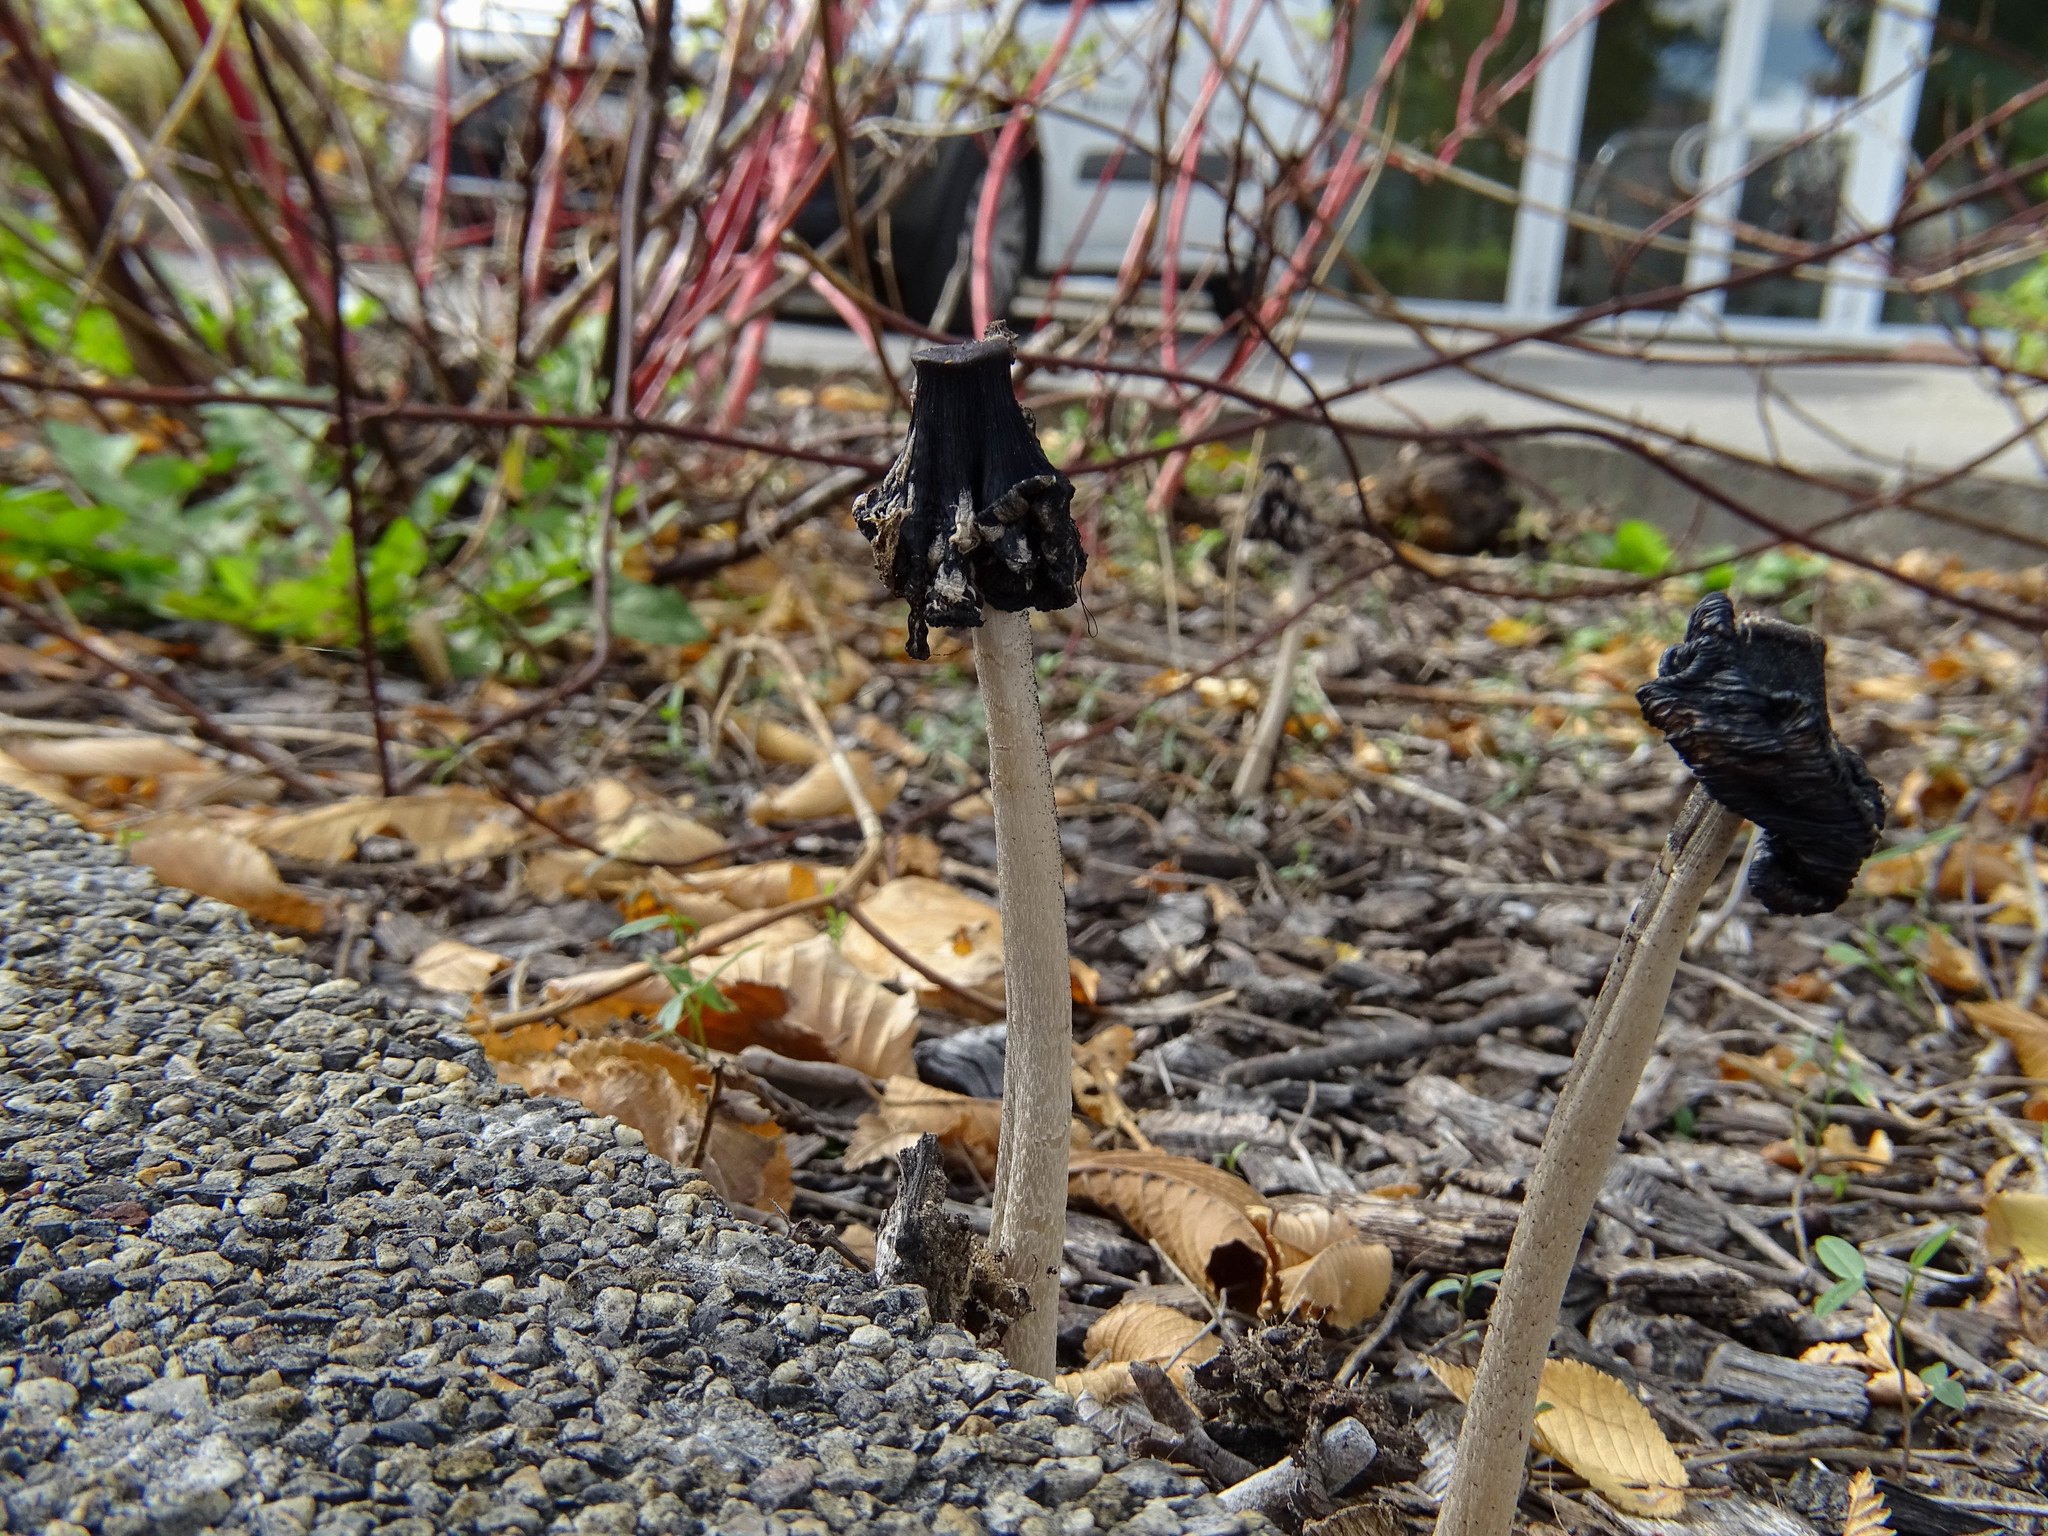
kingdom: Fungi
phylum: Basidiomycota
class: Agaricomycetes
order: Agaricales
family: Psathyrellaceae
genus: Coprinopsis
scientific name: Coprinopsis picacea
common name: Magpie inkcap
